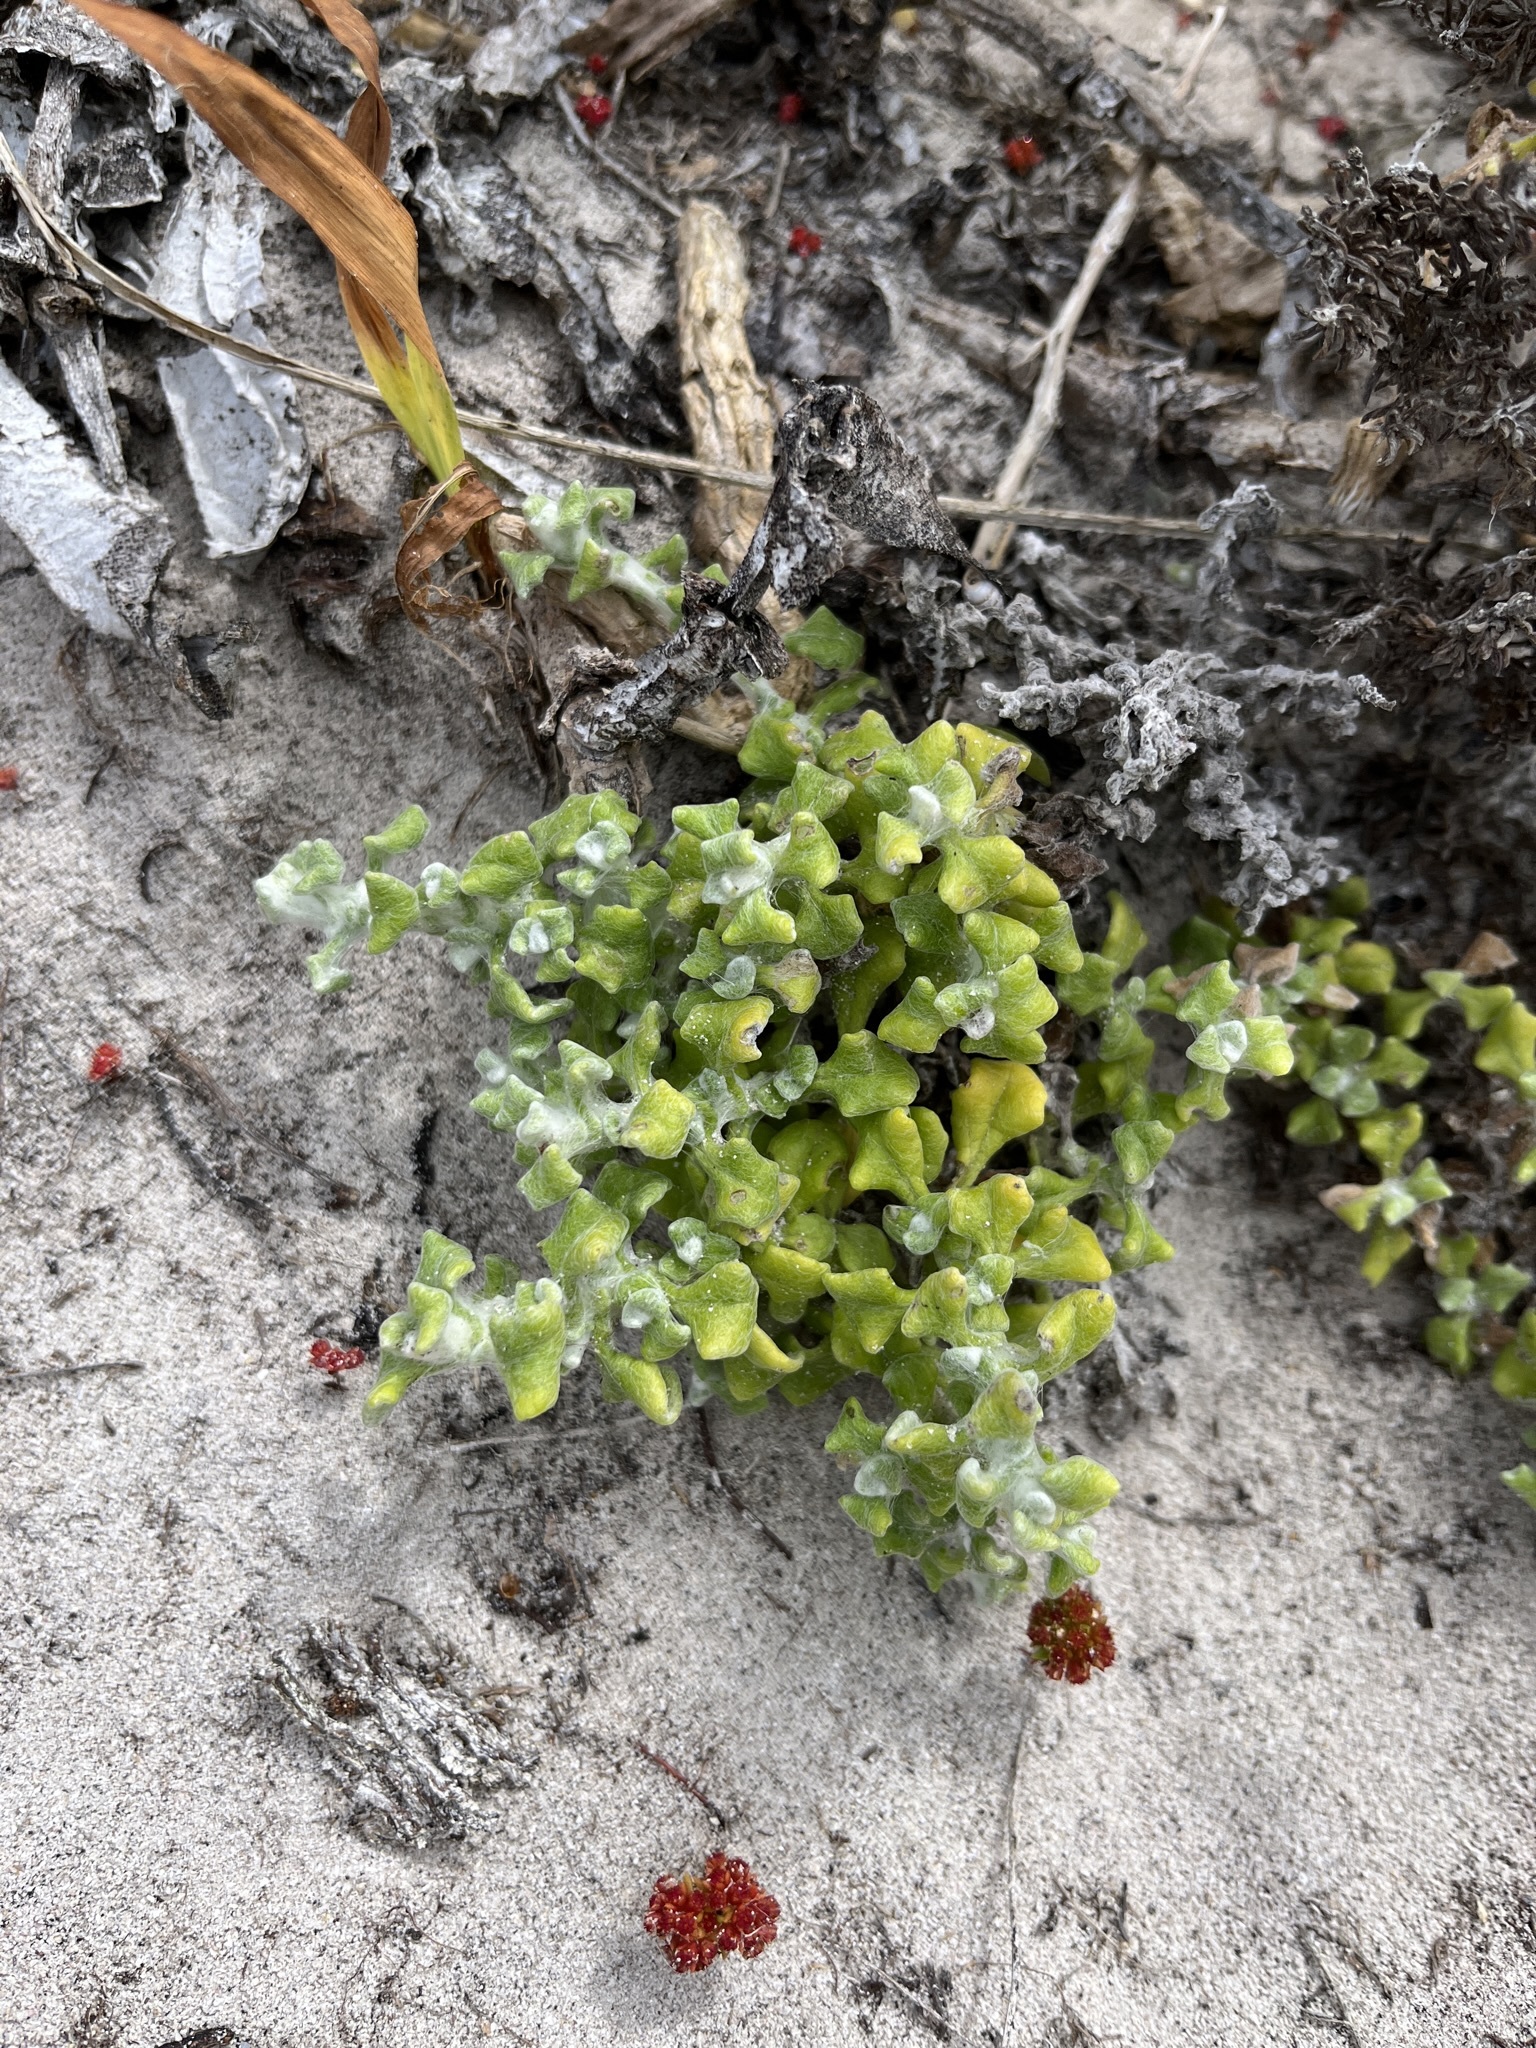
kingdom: Plantae
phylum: Tracheophyta
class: Magnoliopsida
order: Asterales
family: Asteraceae
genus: Helichrysum
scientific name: Helichrysum patulum
